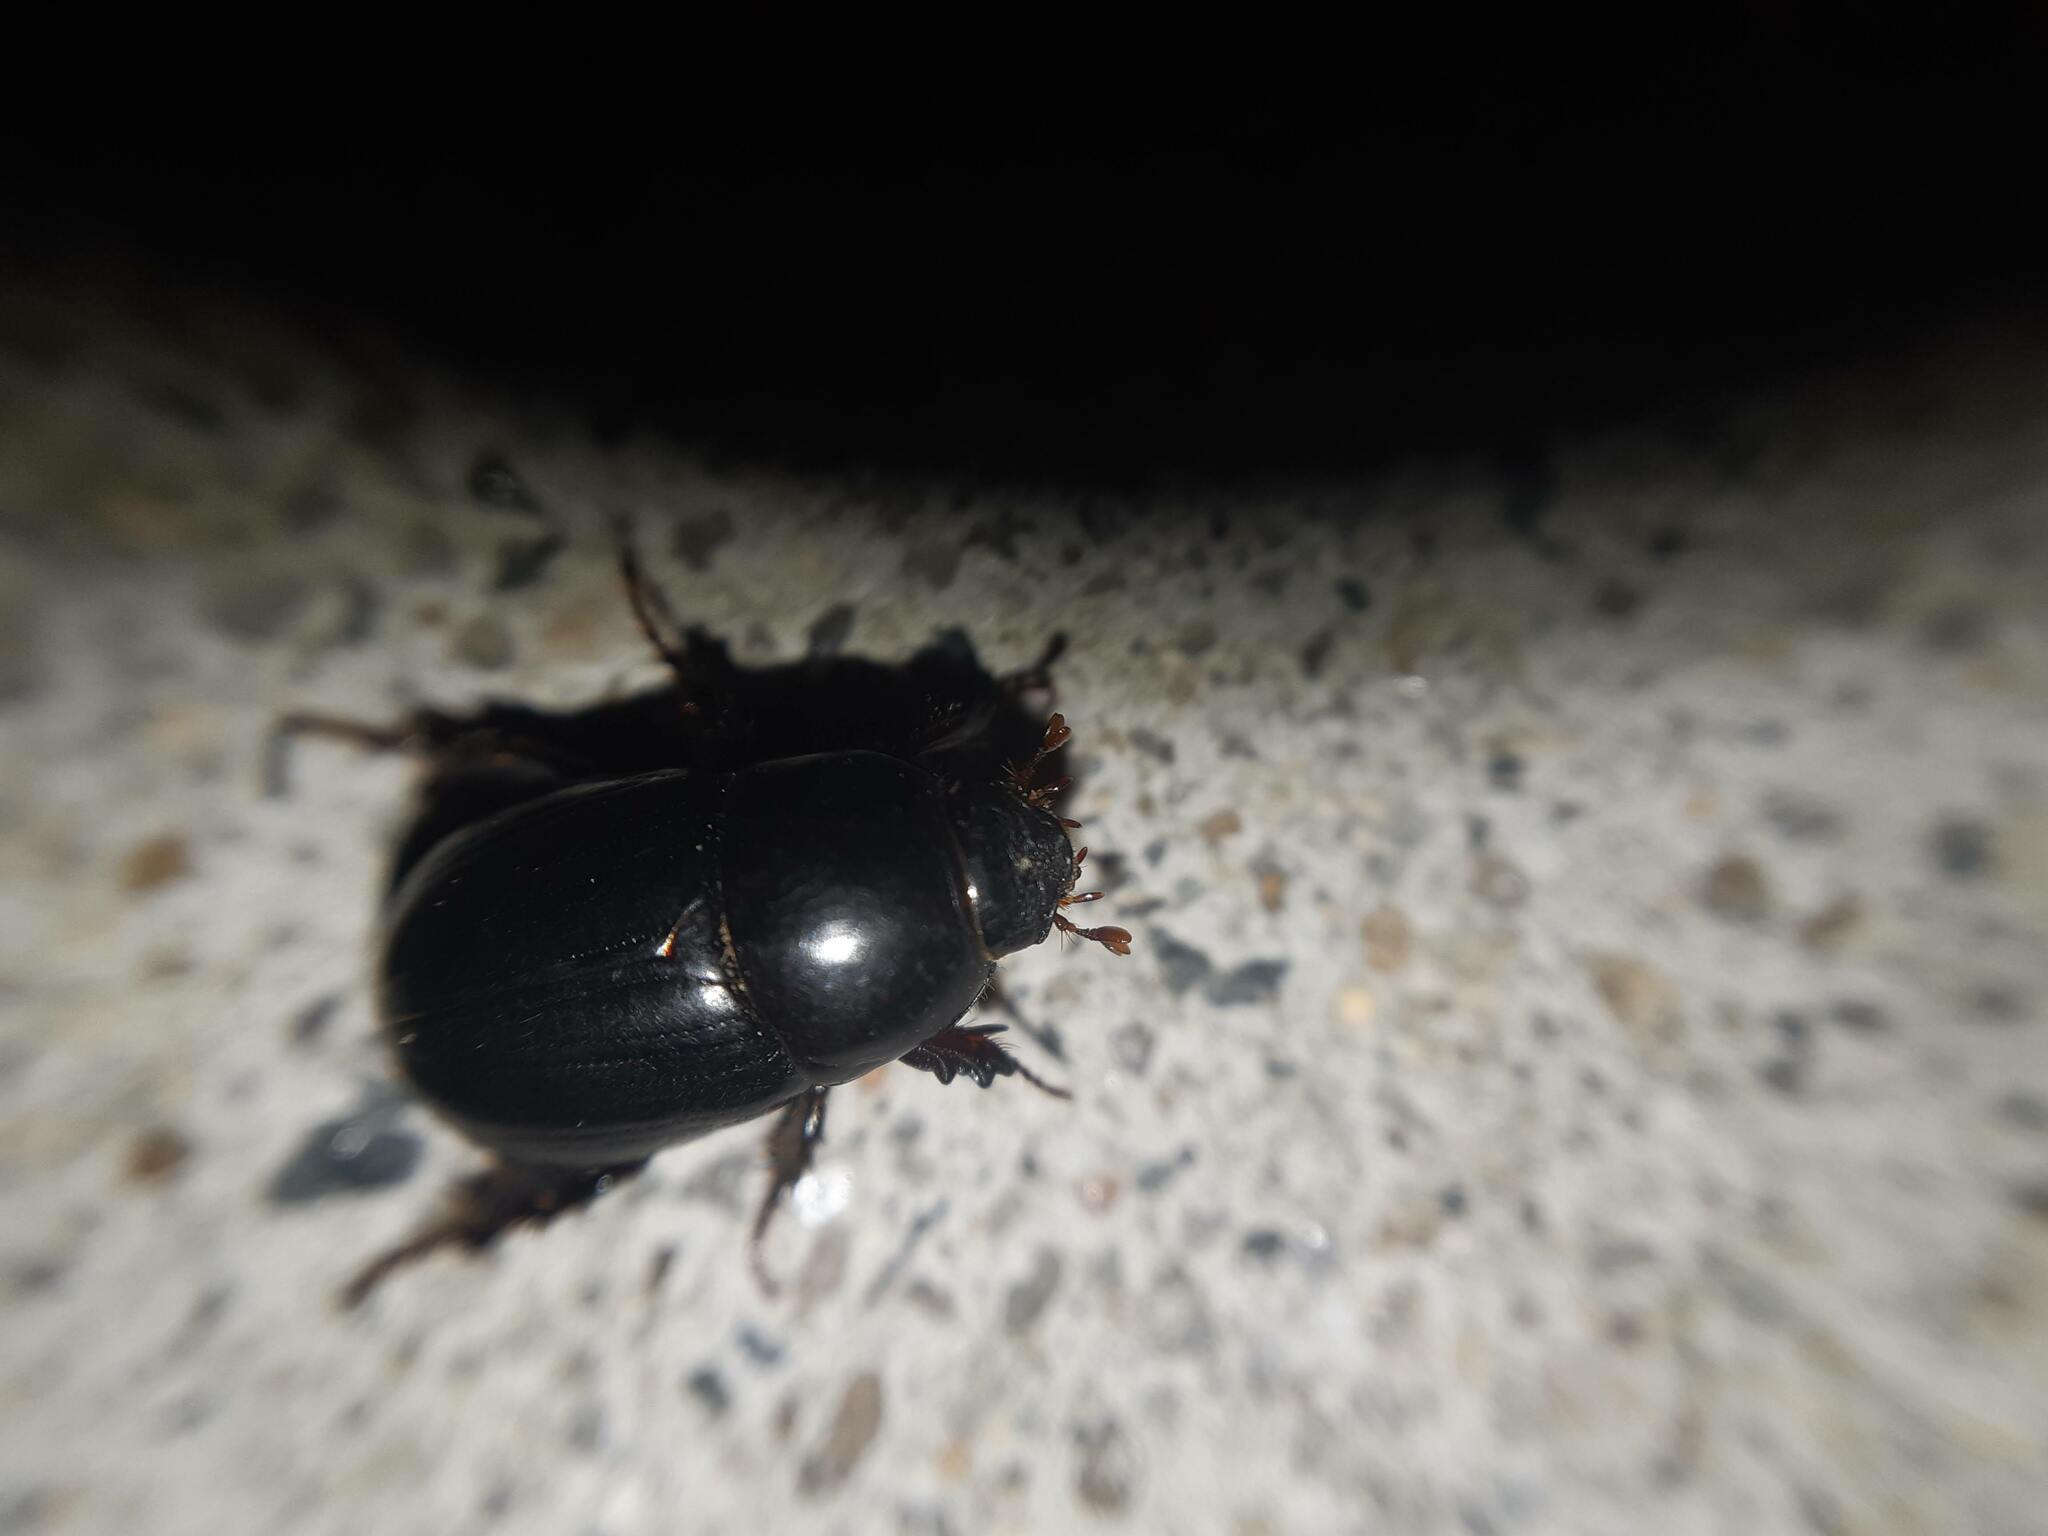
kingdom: Animalia
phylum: Arthropoda
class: Insecta
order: Coleoptera
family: Scarabaeidae
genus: Heteronychus
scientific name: Heteronychus arator
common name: African black beetle
